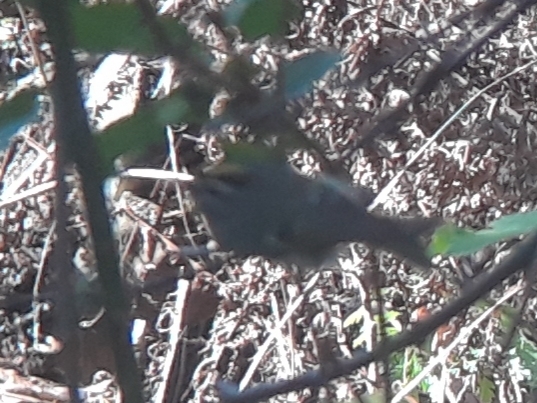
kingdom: Animalia
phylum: Chordata
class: Aves
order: Passeriformes
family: Regulidae
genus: Regulus
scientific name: Regulus satrapa
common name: Golden-crowned kinglet
